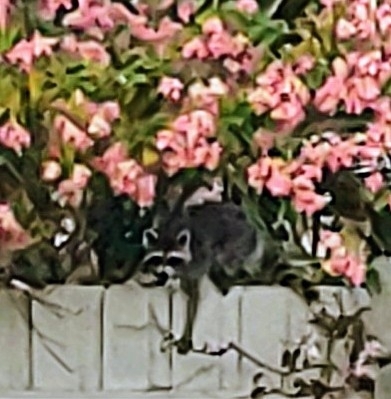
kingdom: Animalia
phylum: Chordata
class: Mammalia
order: Carnivora
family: Procyonidae
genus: Procyon
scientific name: Procyon lotor
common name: Raccoon
